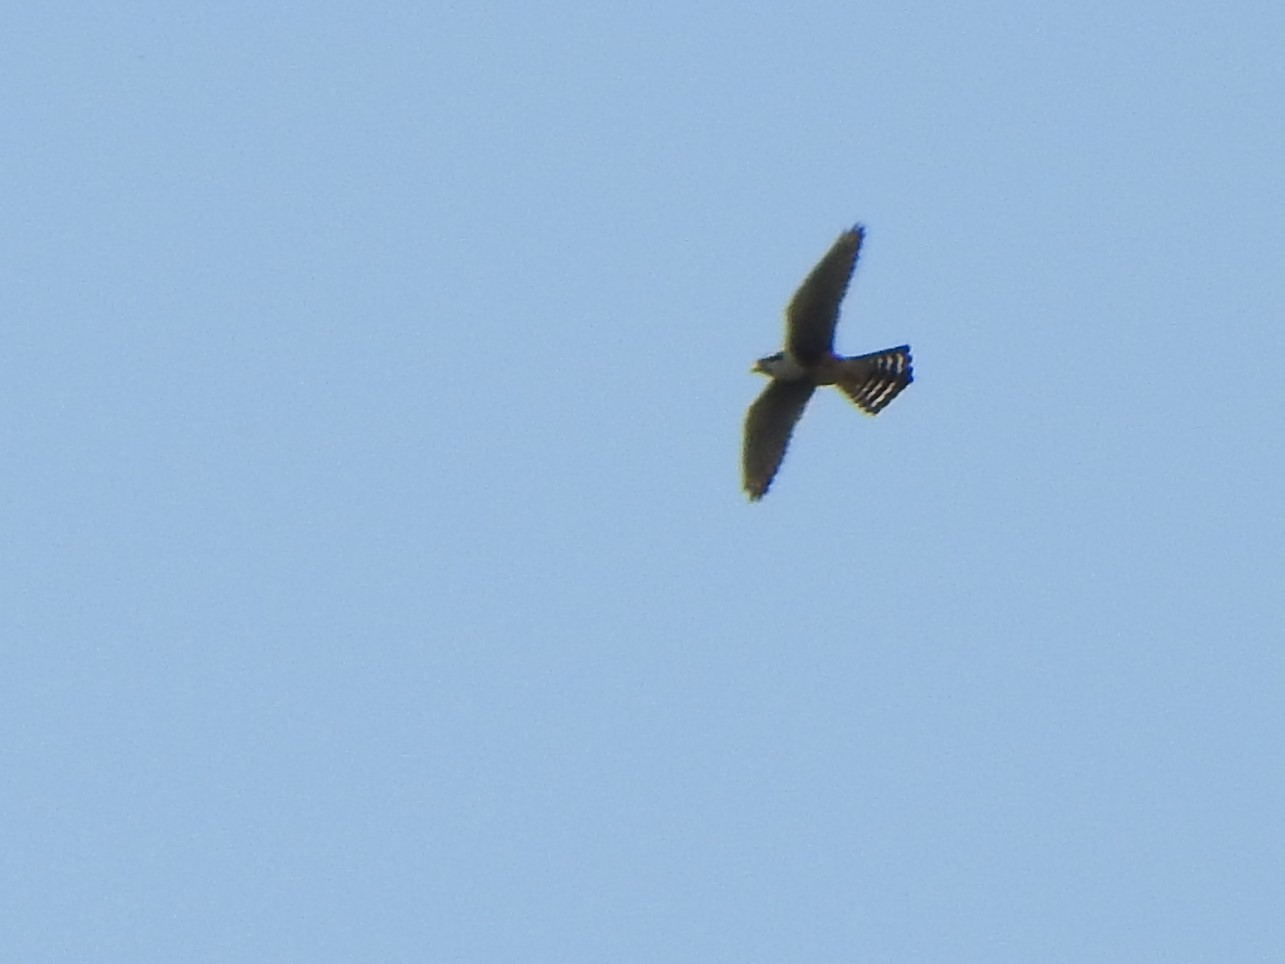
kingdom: Animalia
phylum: Chordata
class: Aves
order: Falconiformes
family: Falconidae
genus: Falco
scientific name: Falco femoralis
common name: Aplomado falcon
